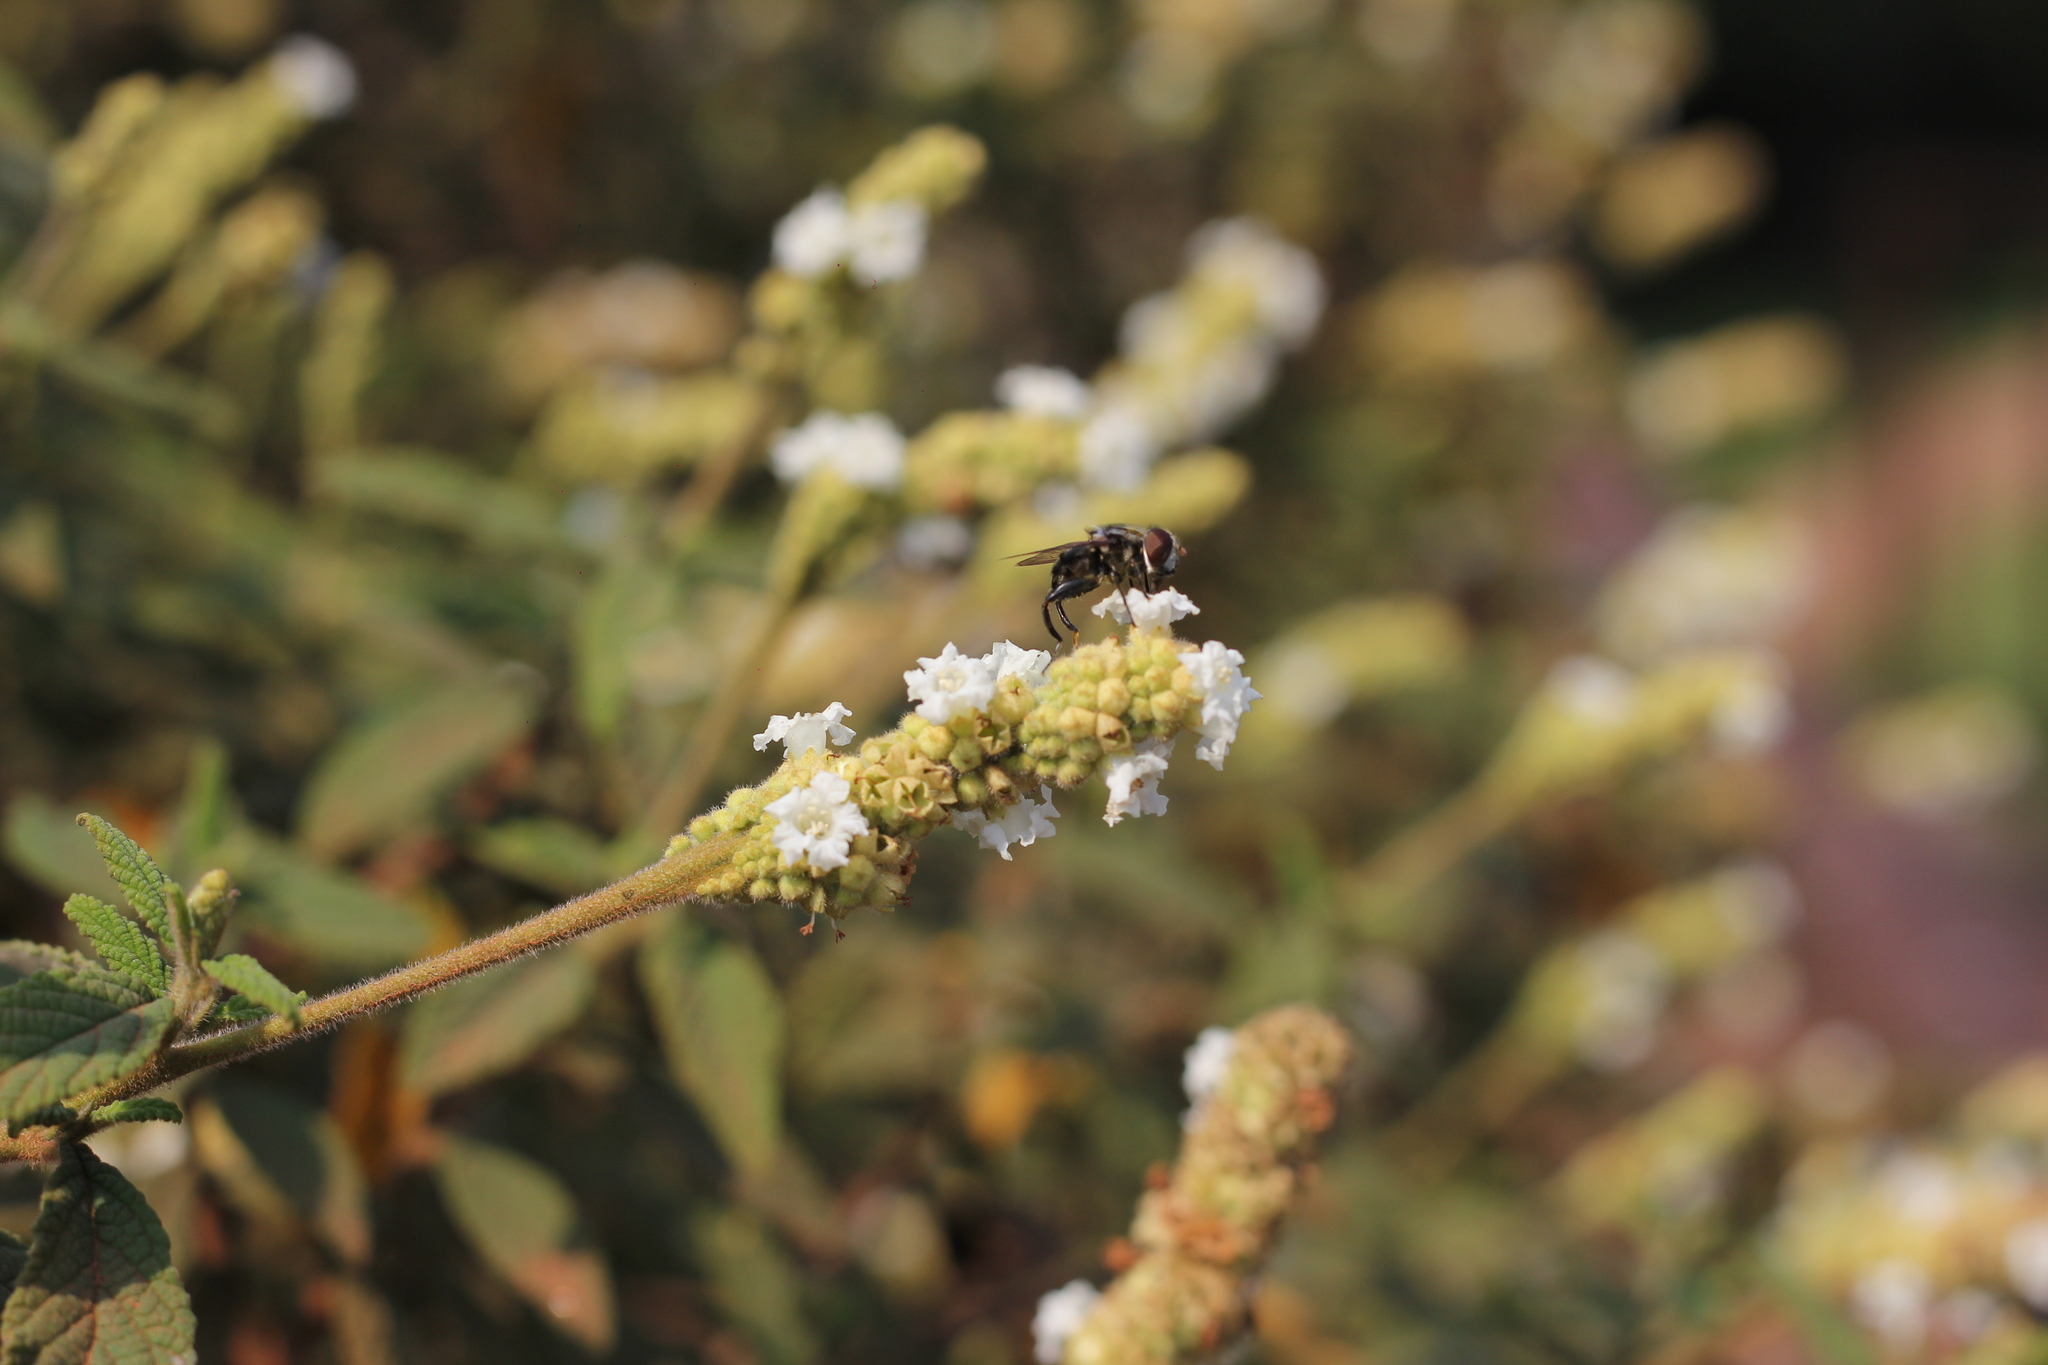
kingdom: Animalia
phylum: Arthropoda
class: Insecta
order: Diptera
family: Syrphidae
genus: Palpada
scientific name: Palpada furcata
